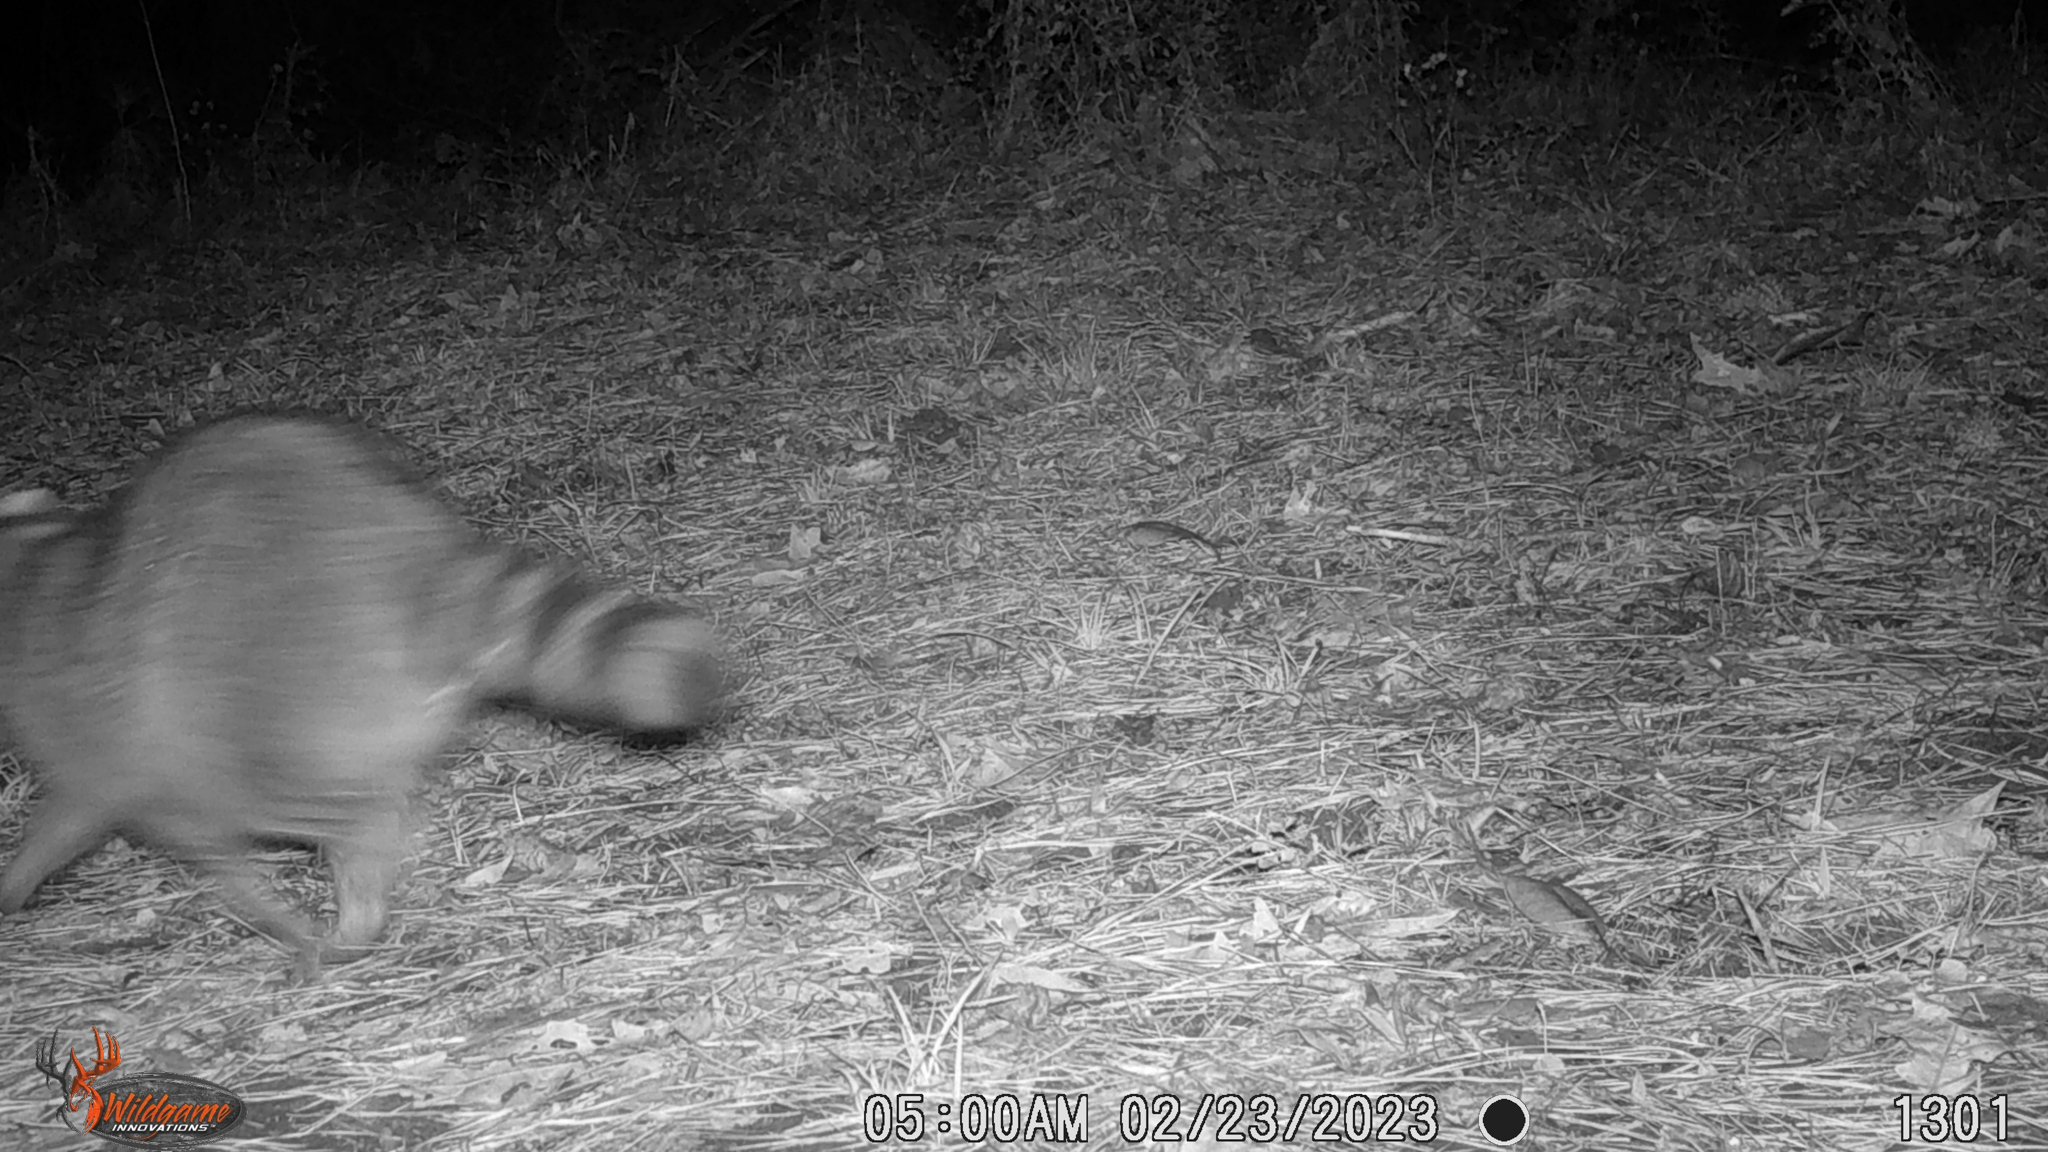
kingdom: Animalia
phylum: Chordata
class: Mammalia
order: Carnivora
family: Procyonidae
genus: Procyon
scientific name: Procyon lotor
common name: Raccoon
